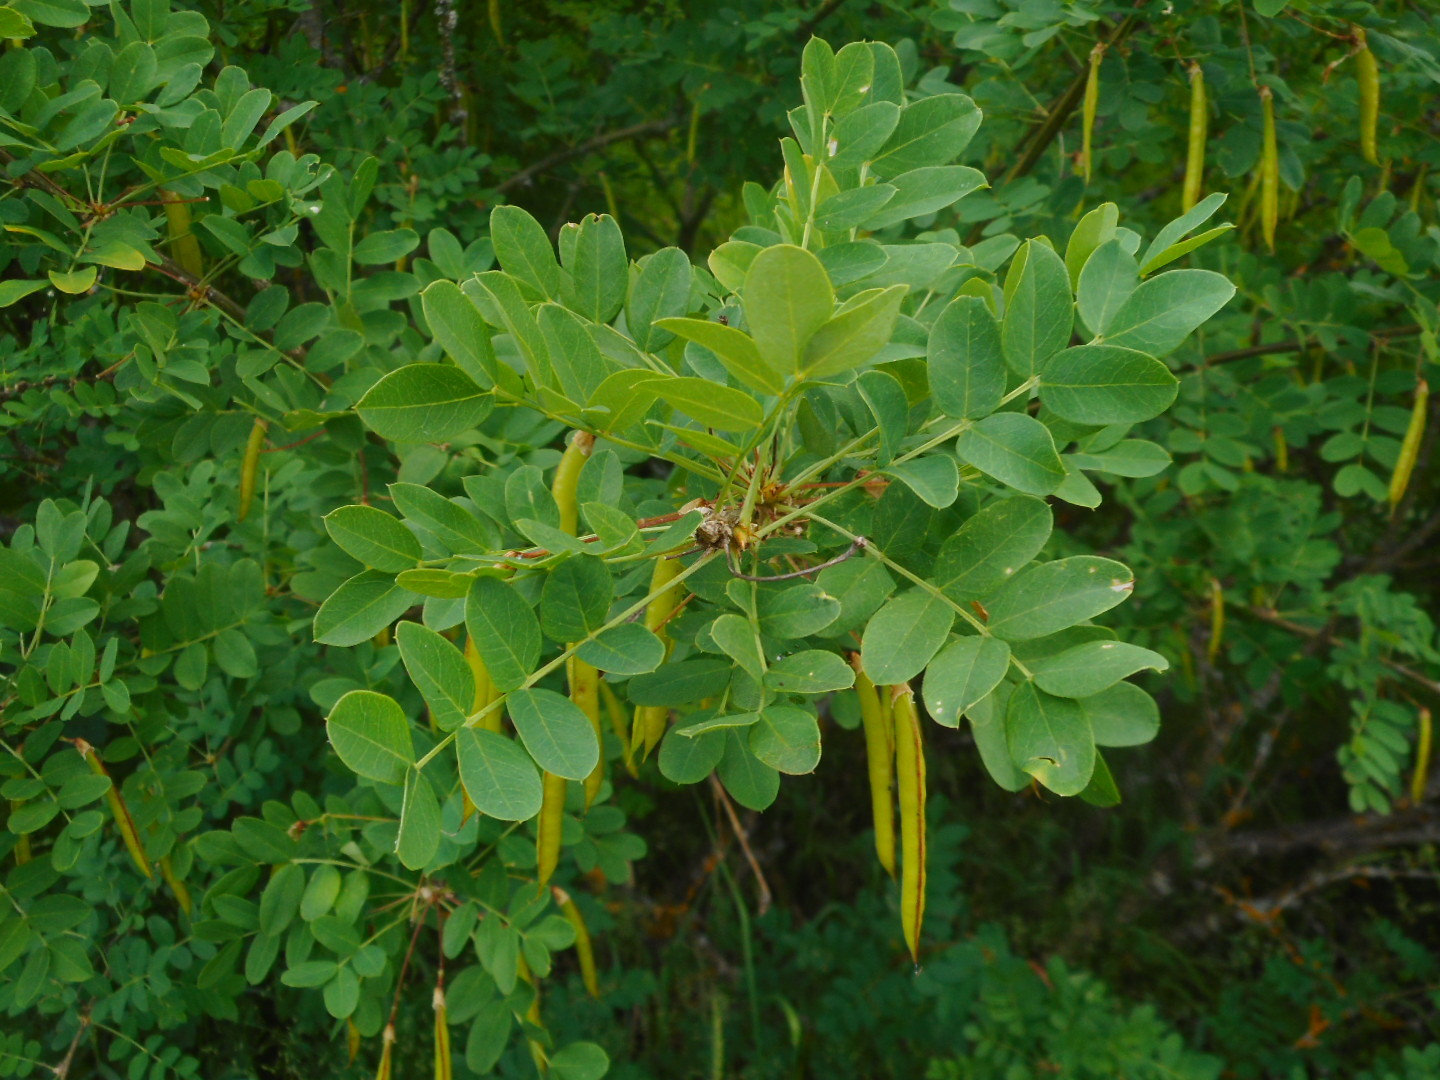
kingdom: Plantae
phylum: Tracheophyta
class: Magnoliopsida
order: Fabales
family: Fabaceae
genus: Caragana
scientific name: Caragana arborescens
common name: Siberian peashrub
